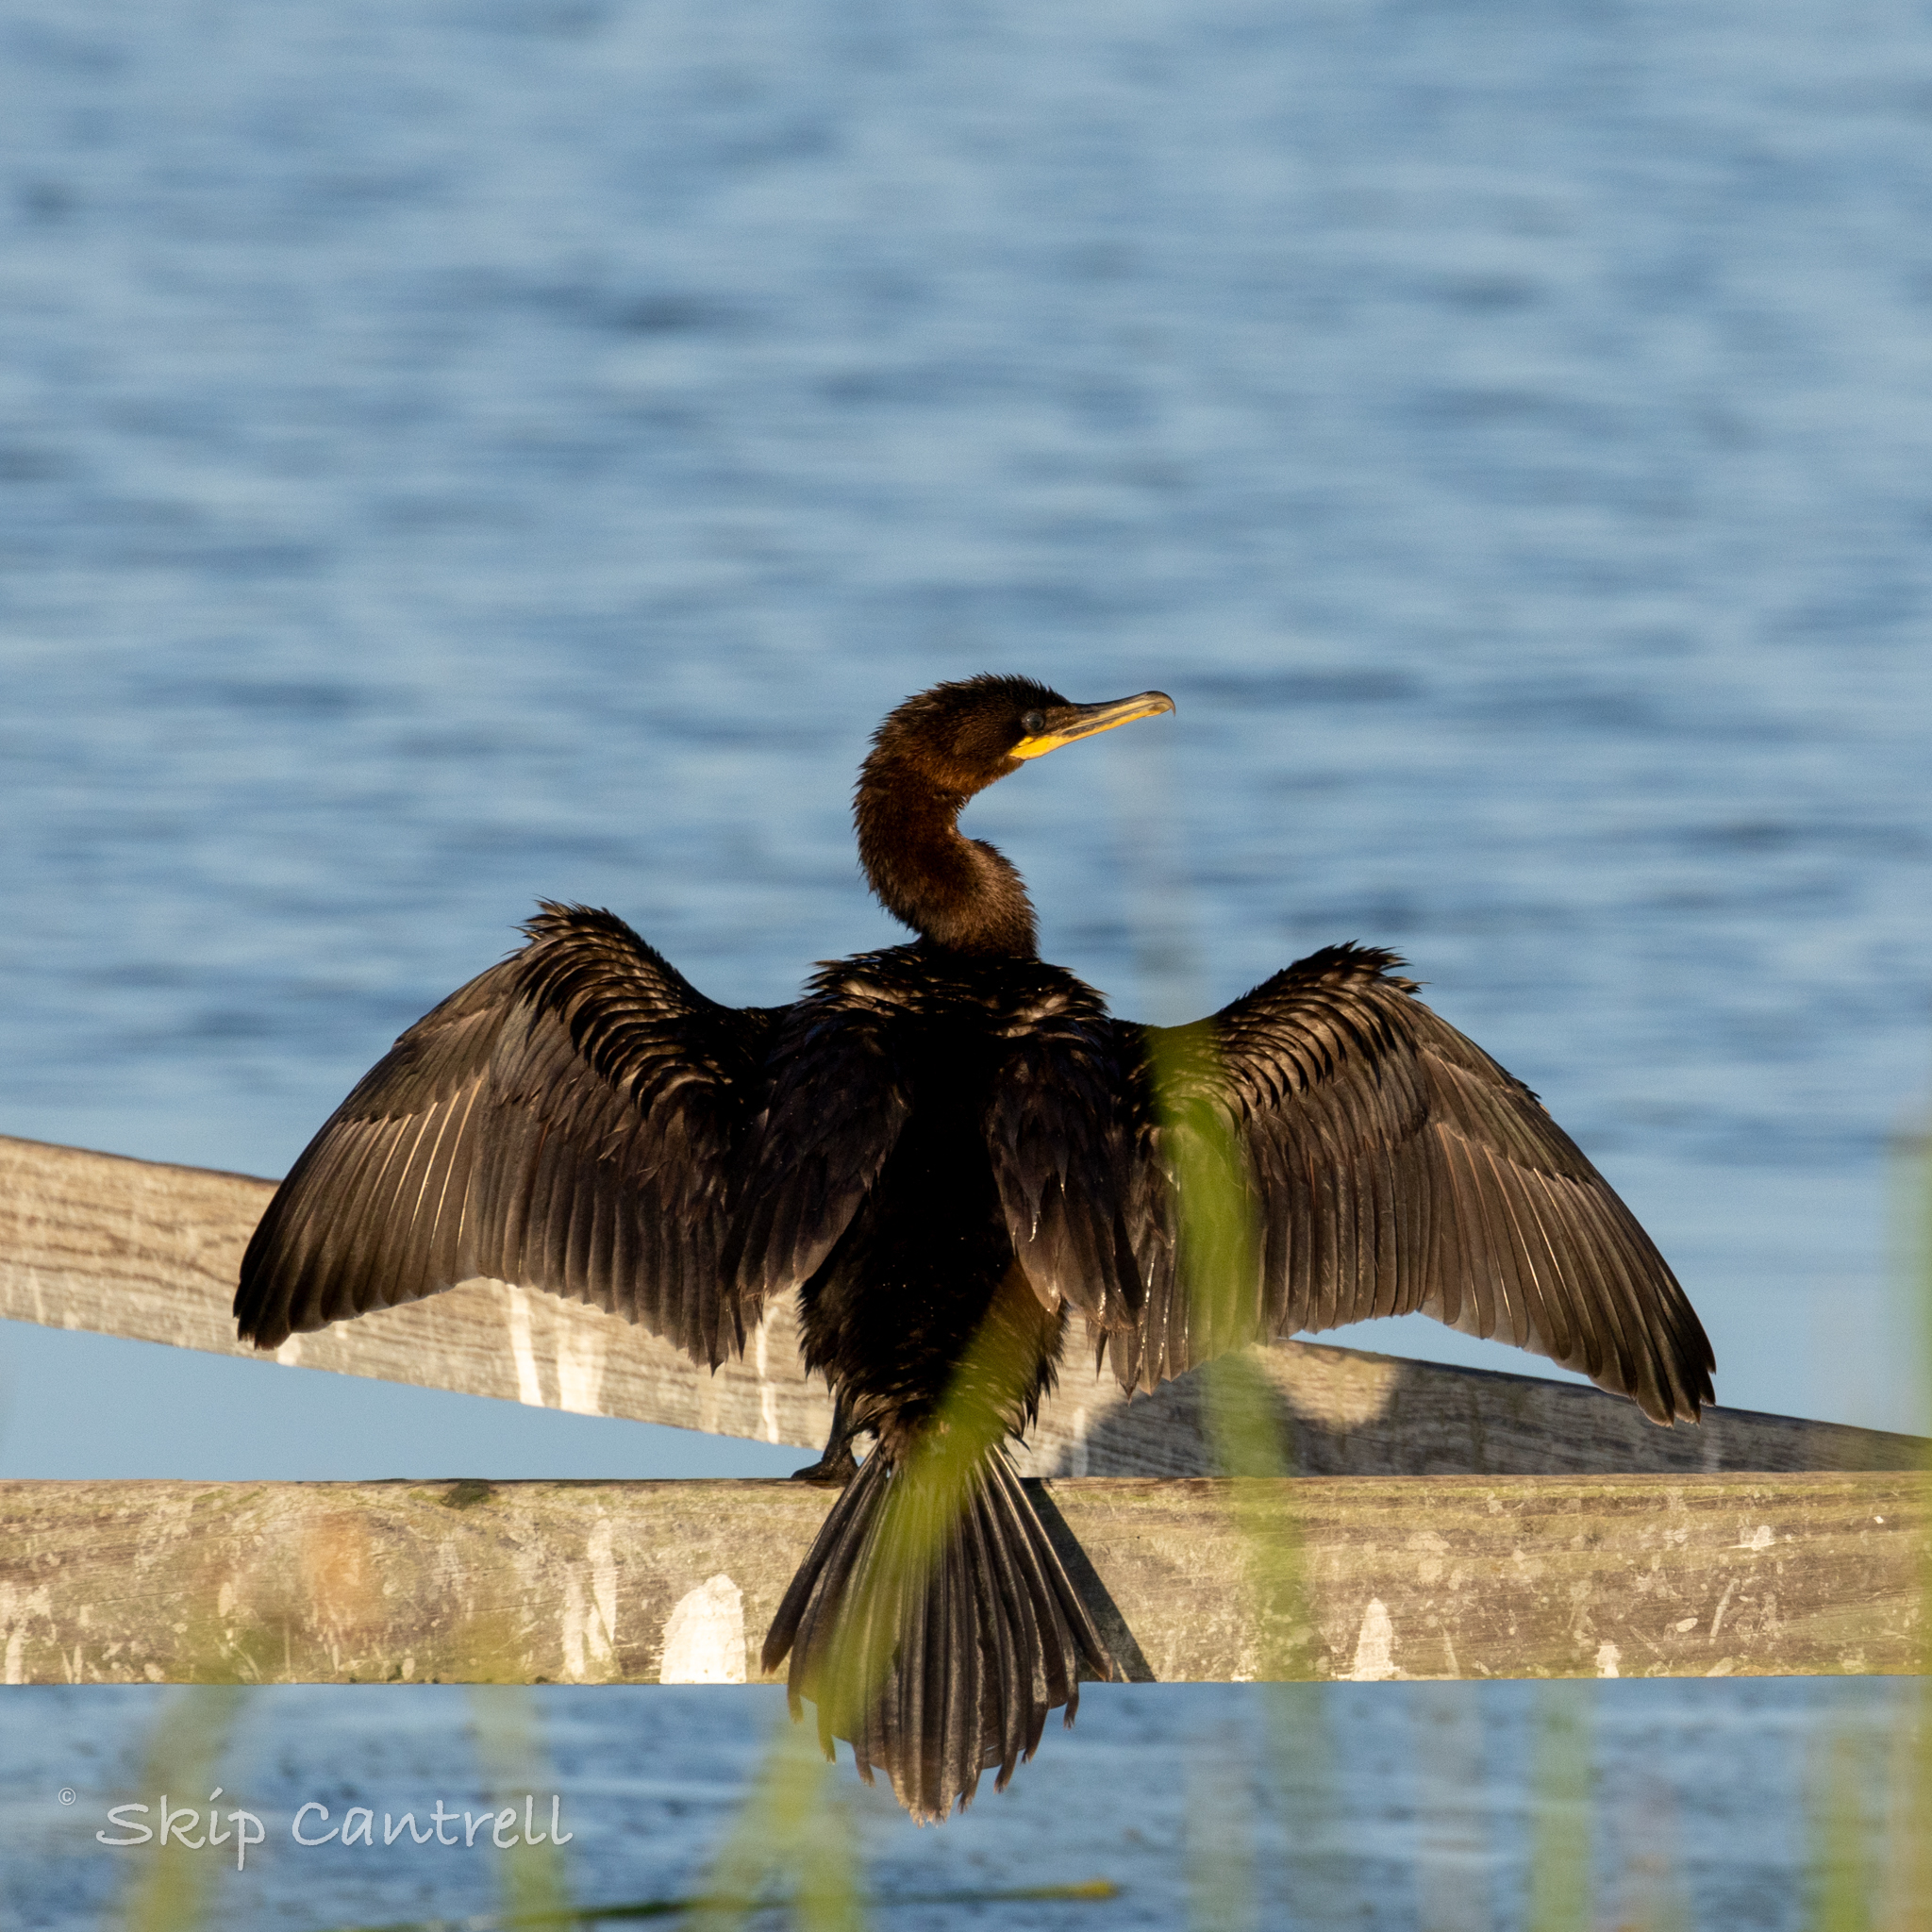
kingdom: Animalia
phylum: Chordata
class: Aves
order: Suliformes
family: Phalacrocoracidae
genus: Phalacrocorax
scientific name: Phalacrocorax brasilianus
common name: Neotropic cormorant
